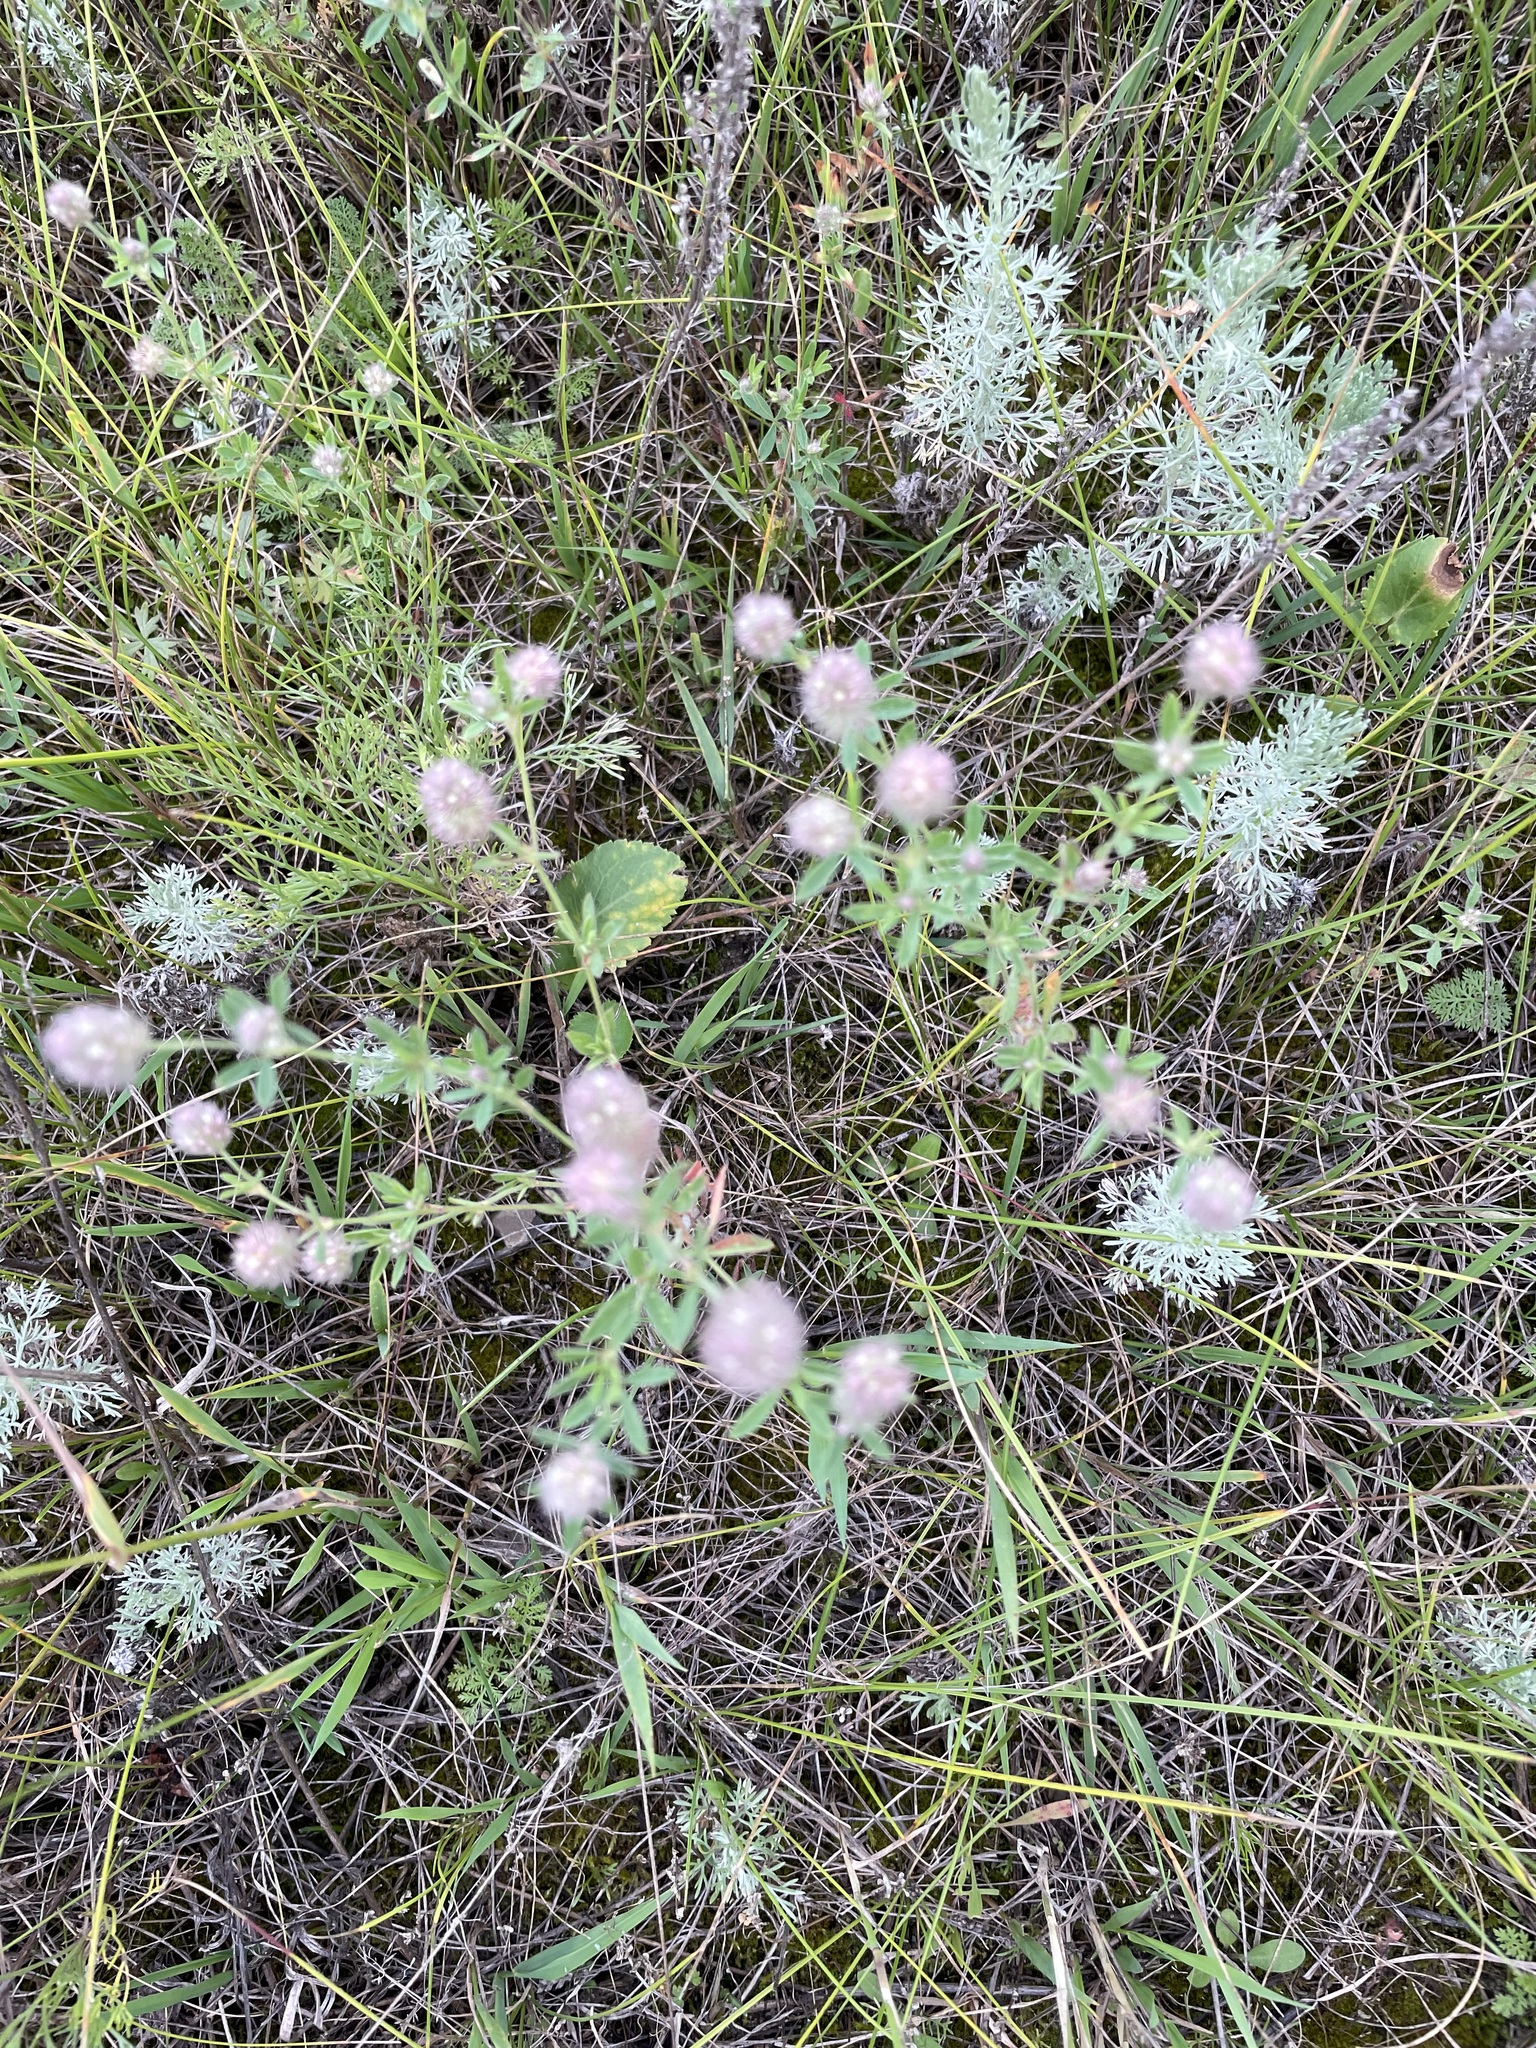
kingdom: Plantae
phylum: Tracheophyta
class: Magnoliopsida
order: Fabales
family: Fabaceae
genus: Trifolium
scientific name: Trifolium arvense
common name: Hare's-foot clover
